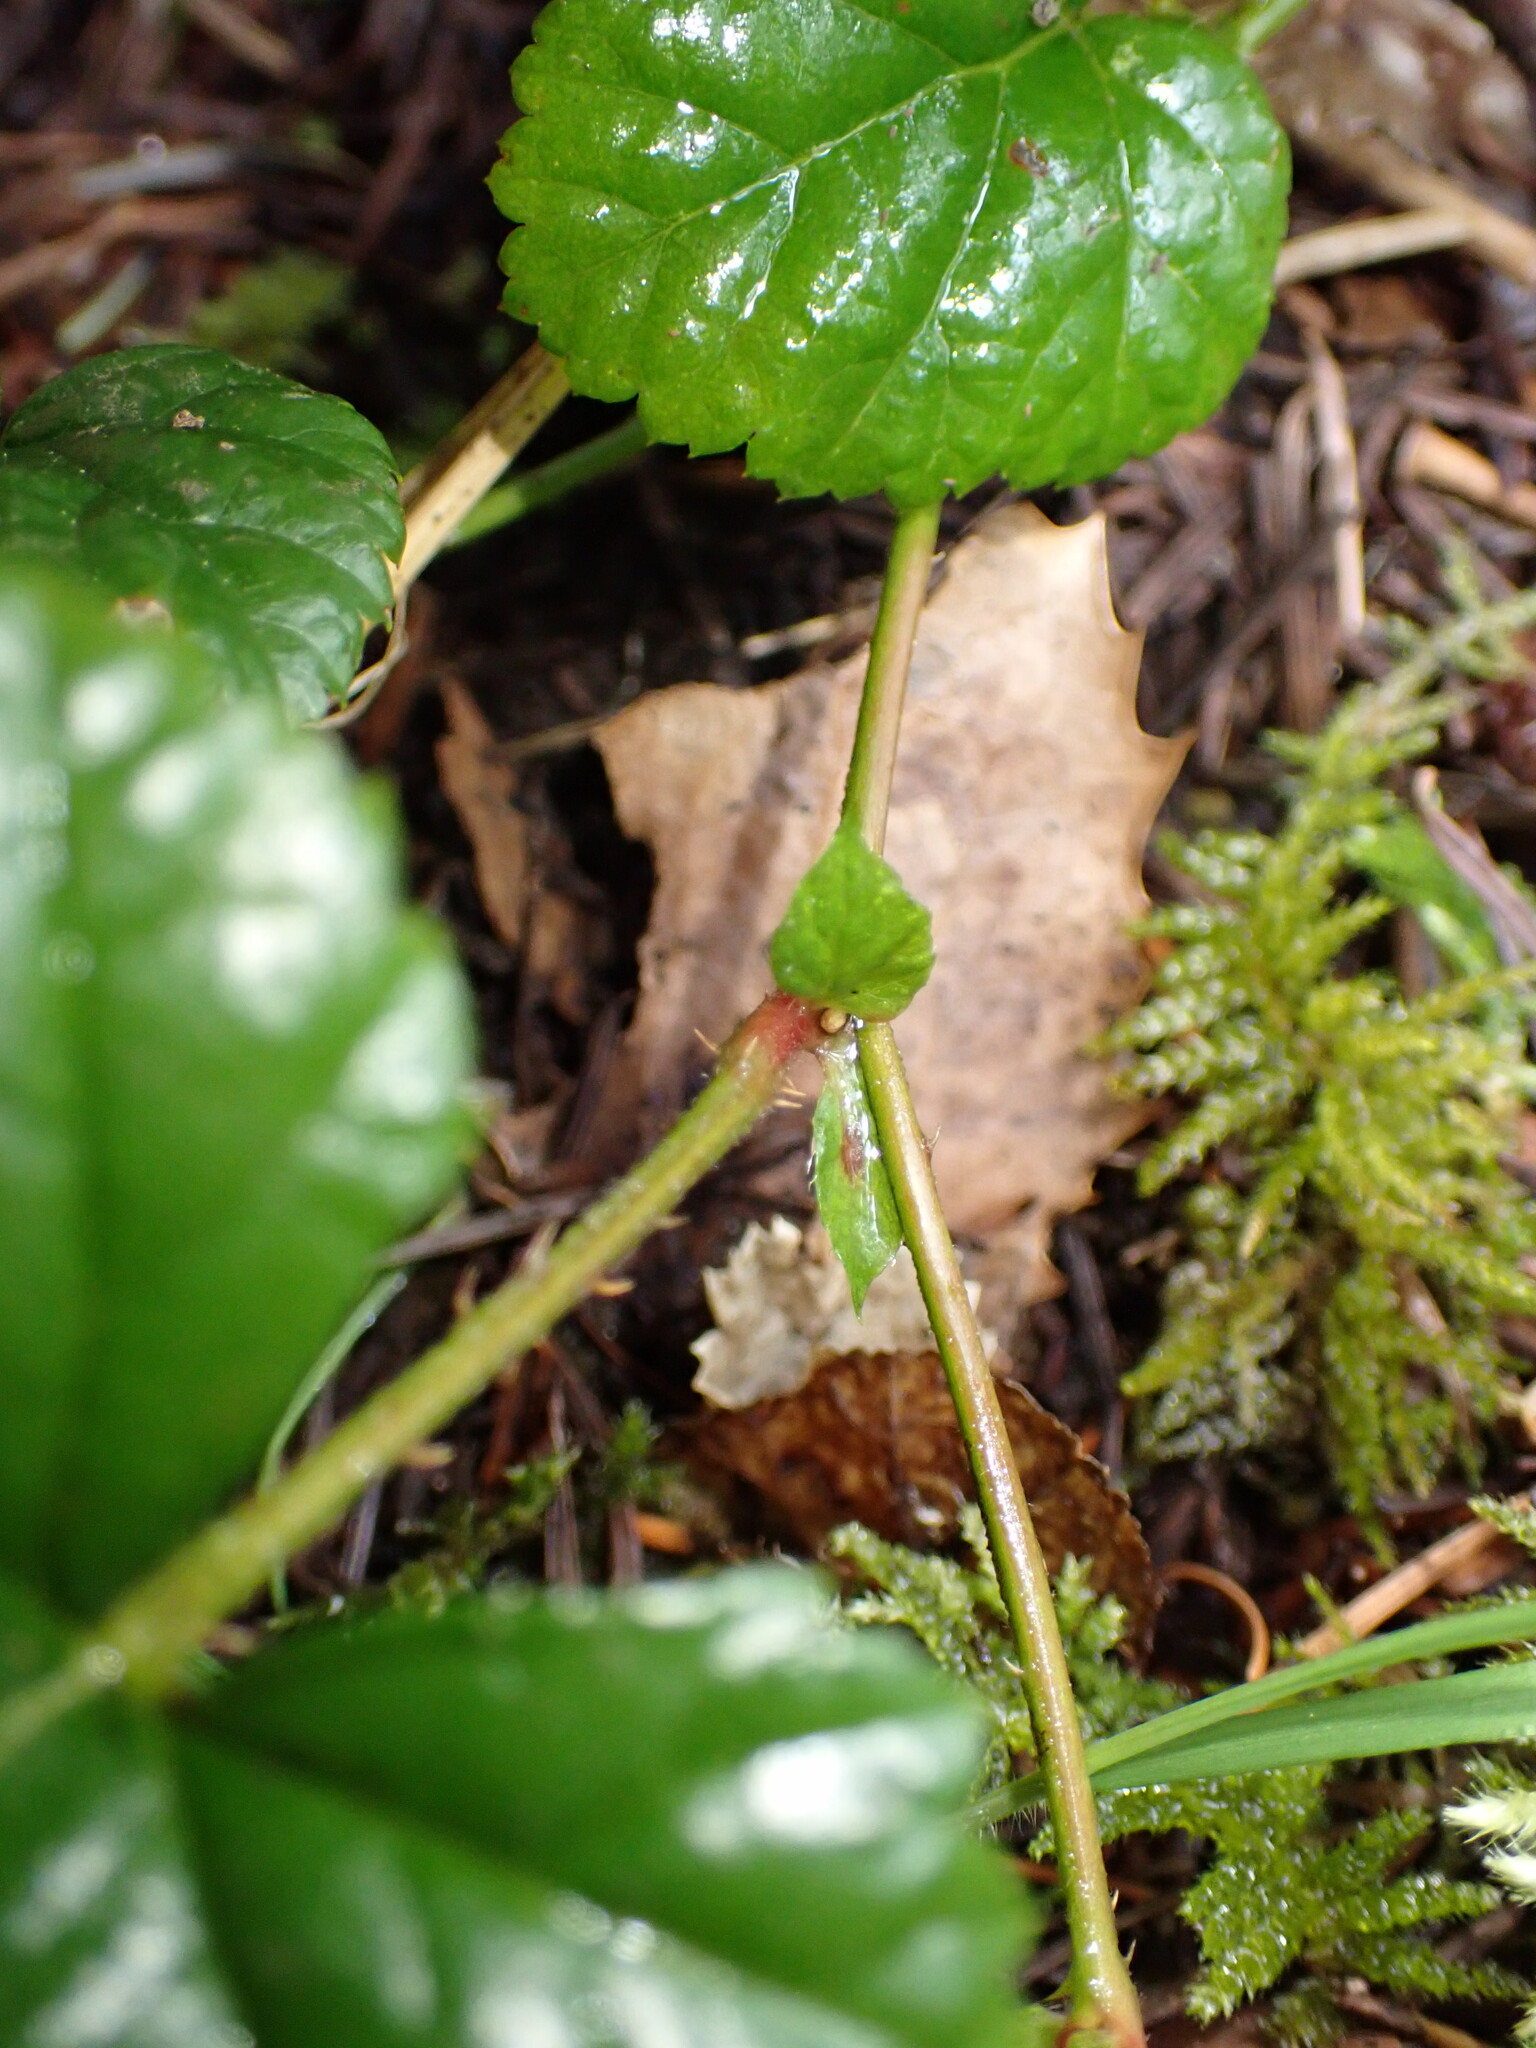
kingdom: Plantae
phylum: Tracheophyta
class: Magnoliopsida
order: Rosales
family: Rosaceae
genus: Rubus
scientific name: Rubus nivalis
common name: Dwarf snow bramble
